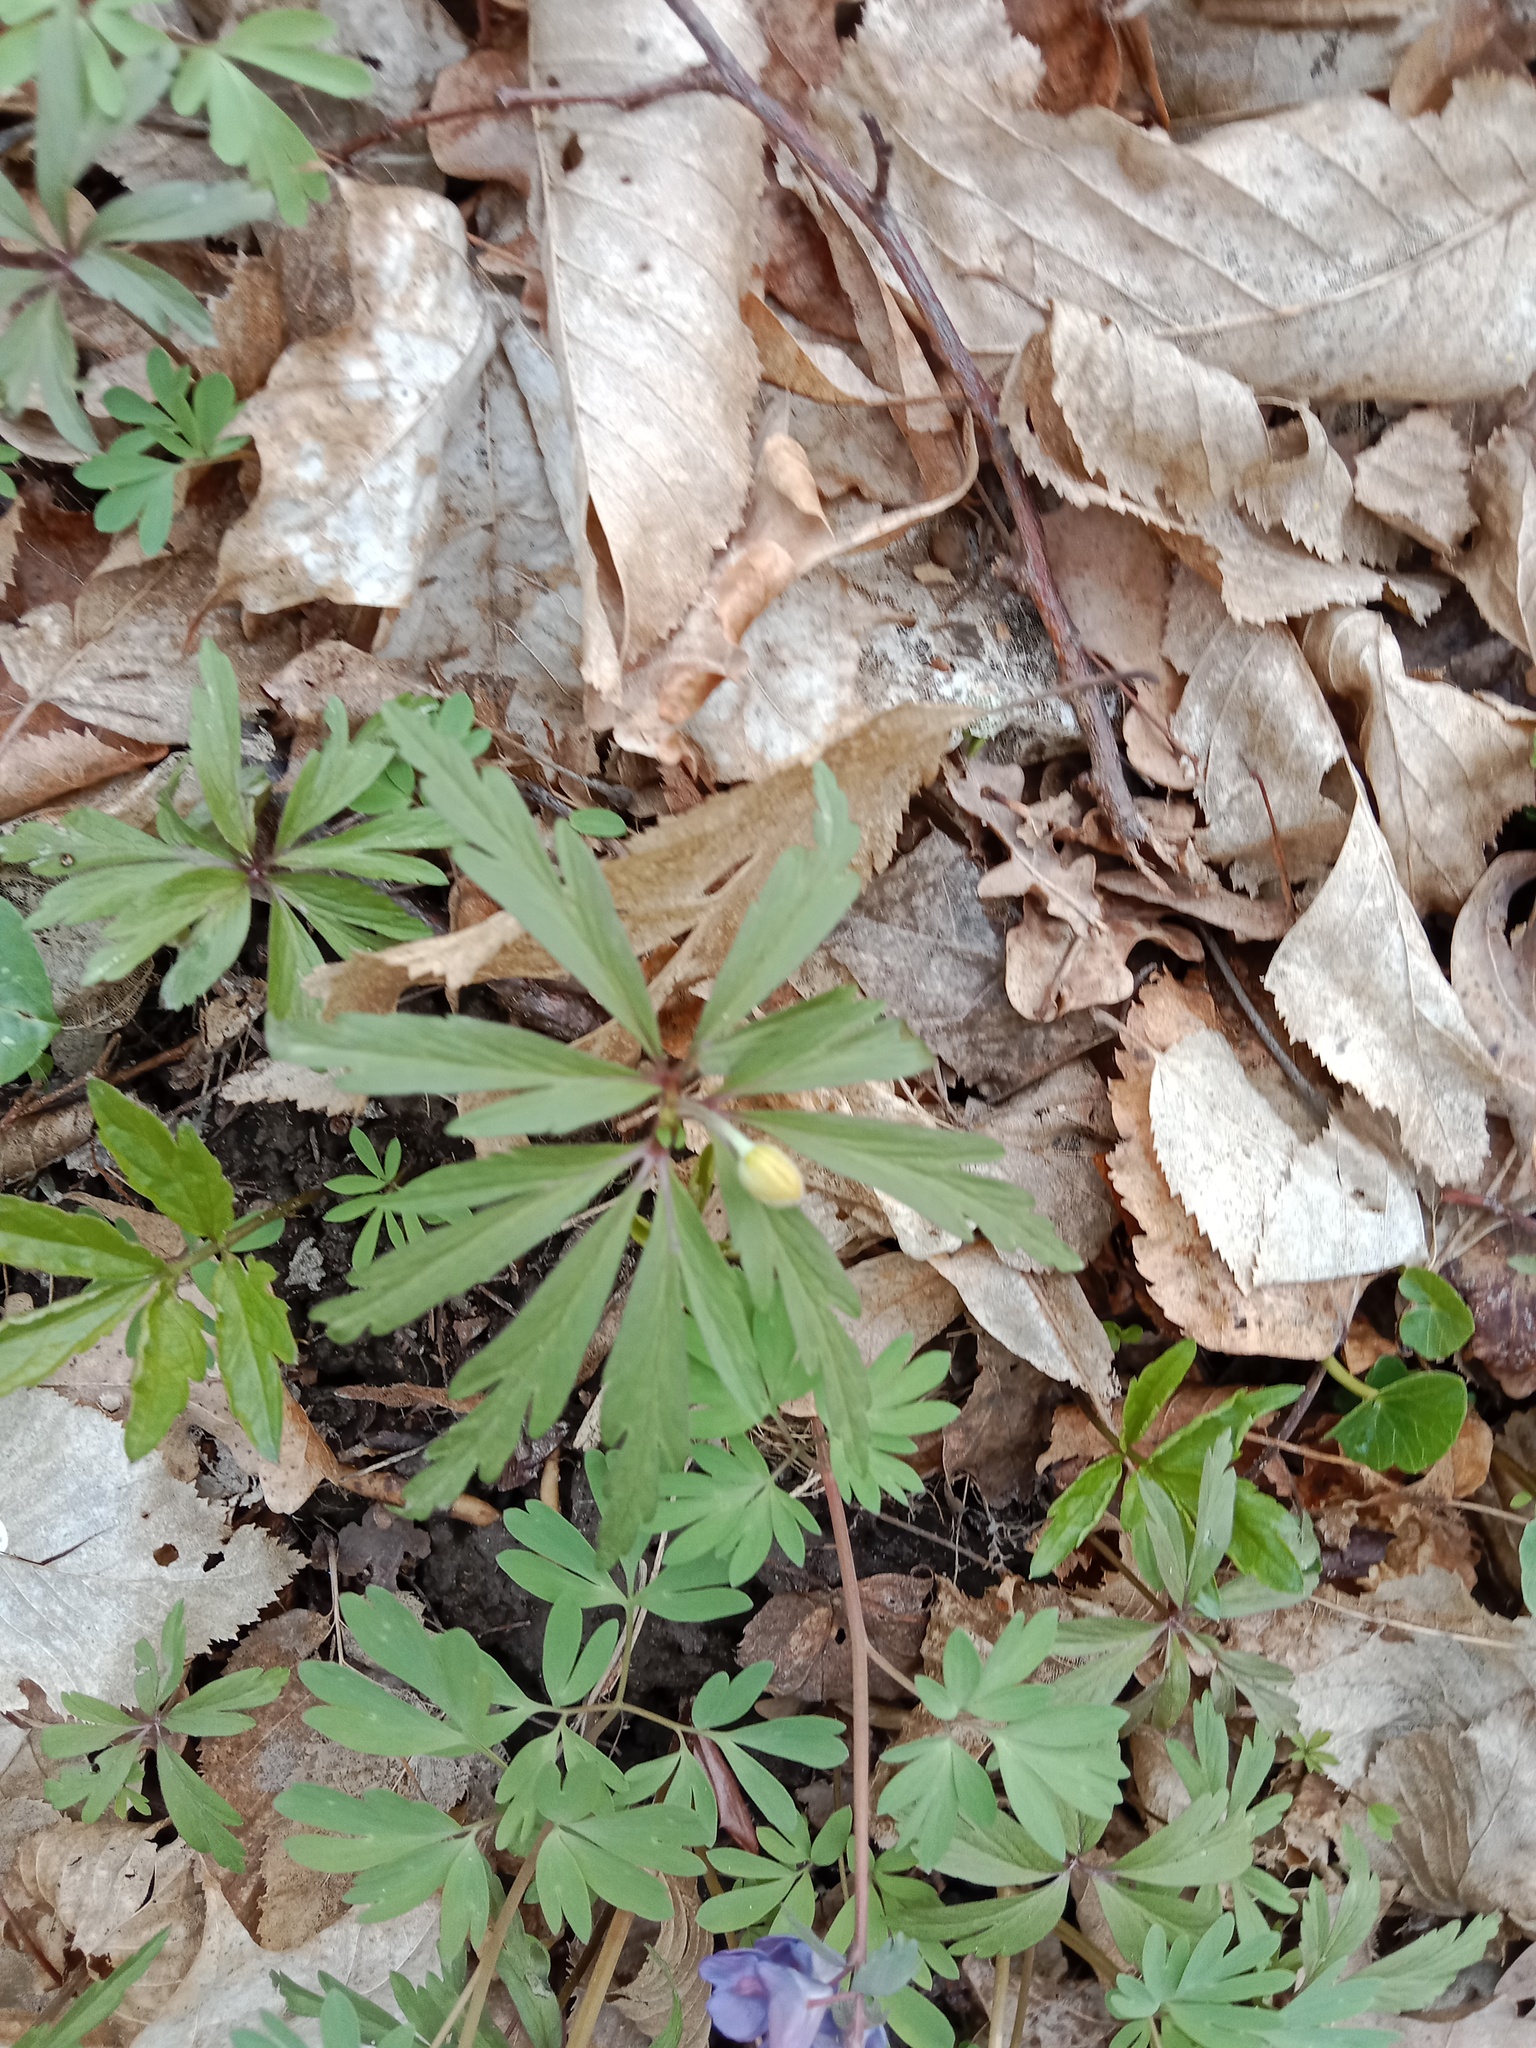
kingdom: Plantae
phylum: Tracheophyta
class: Magnoliopsida
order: Ranunculales
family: Ranunculaceae
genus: Anemone
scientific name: Anemone ranunculoides
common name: Yellow anemone
